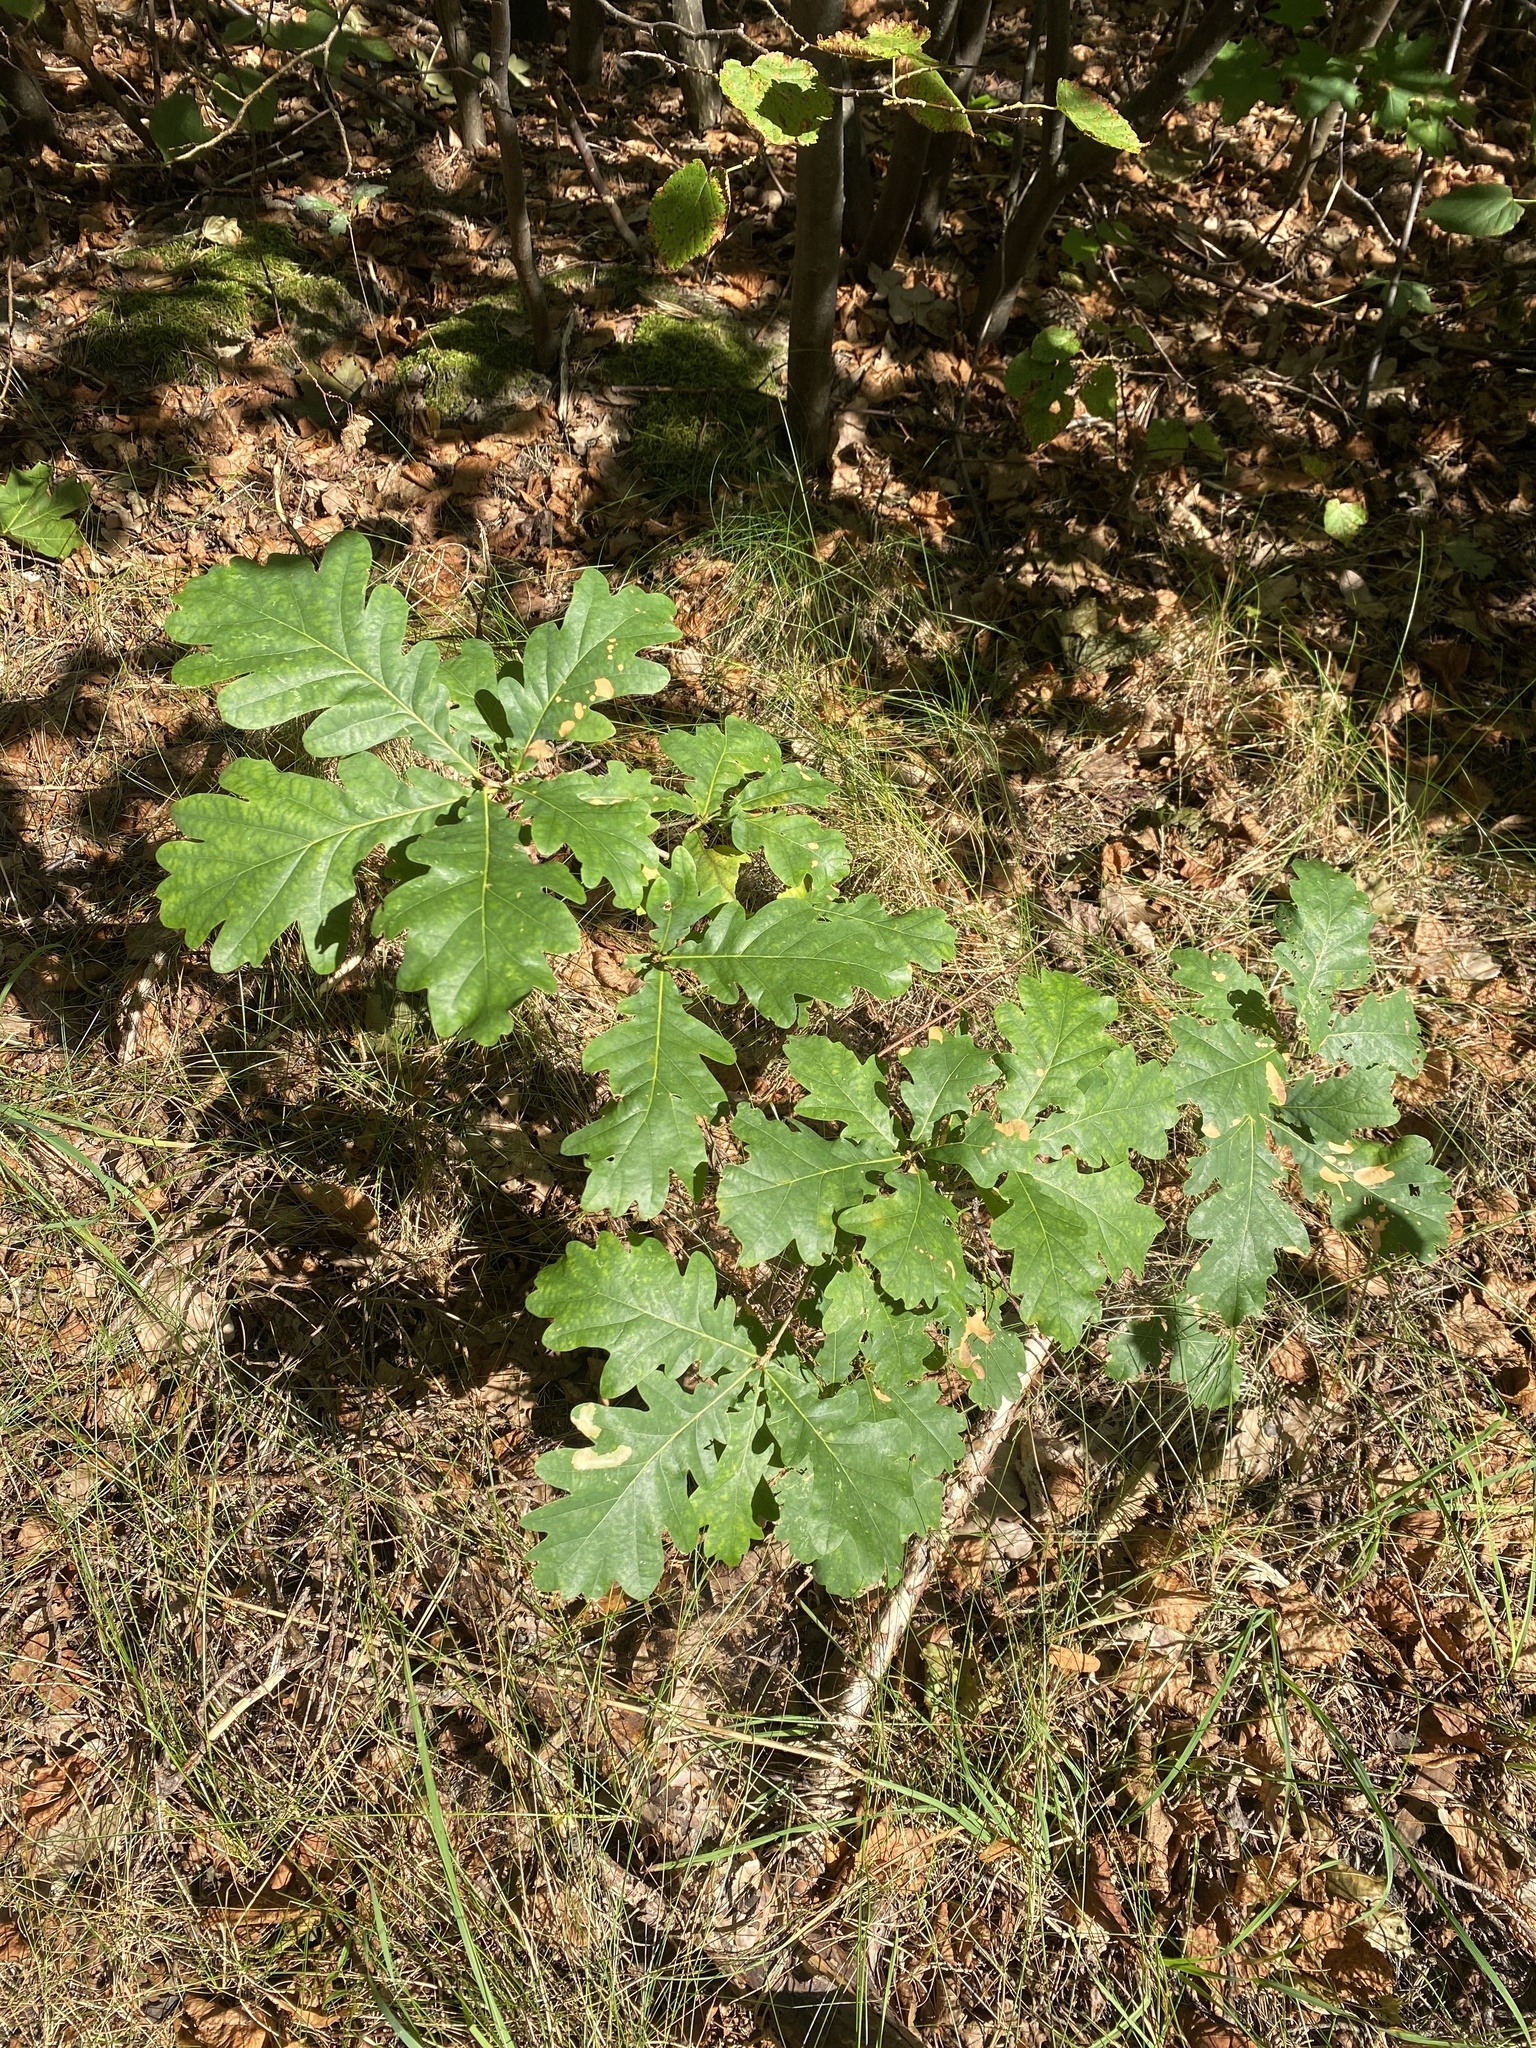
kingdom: Plantae
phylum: Tracheophyta
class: Magnoliopsida
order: Fagales
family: Fagaceae
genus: Quercus
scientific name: Quercus robur
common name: Pedunculate oak
